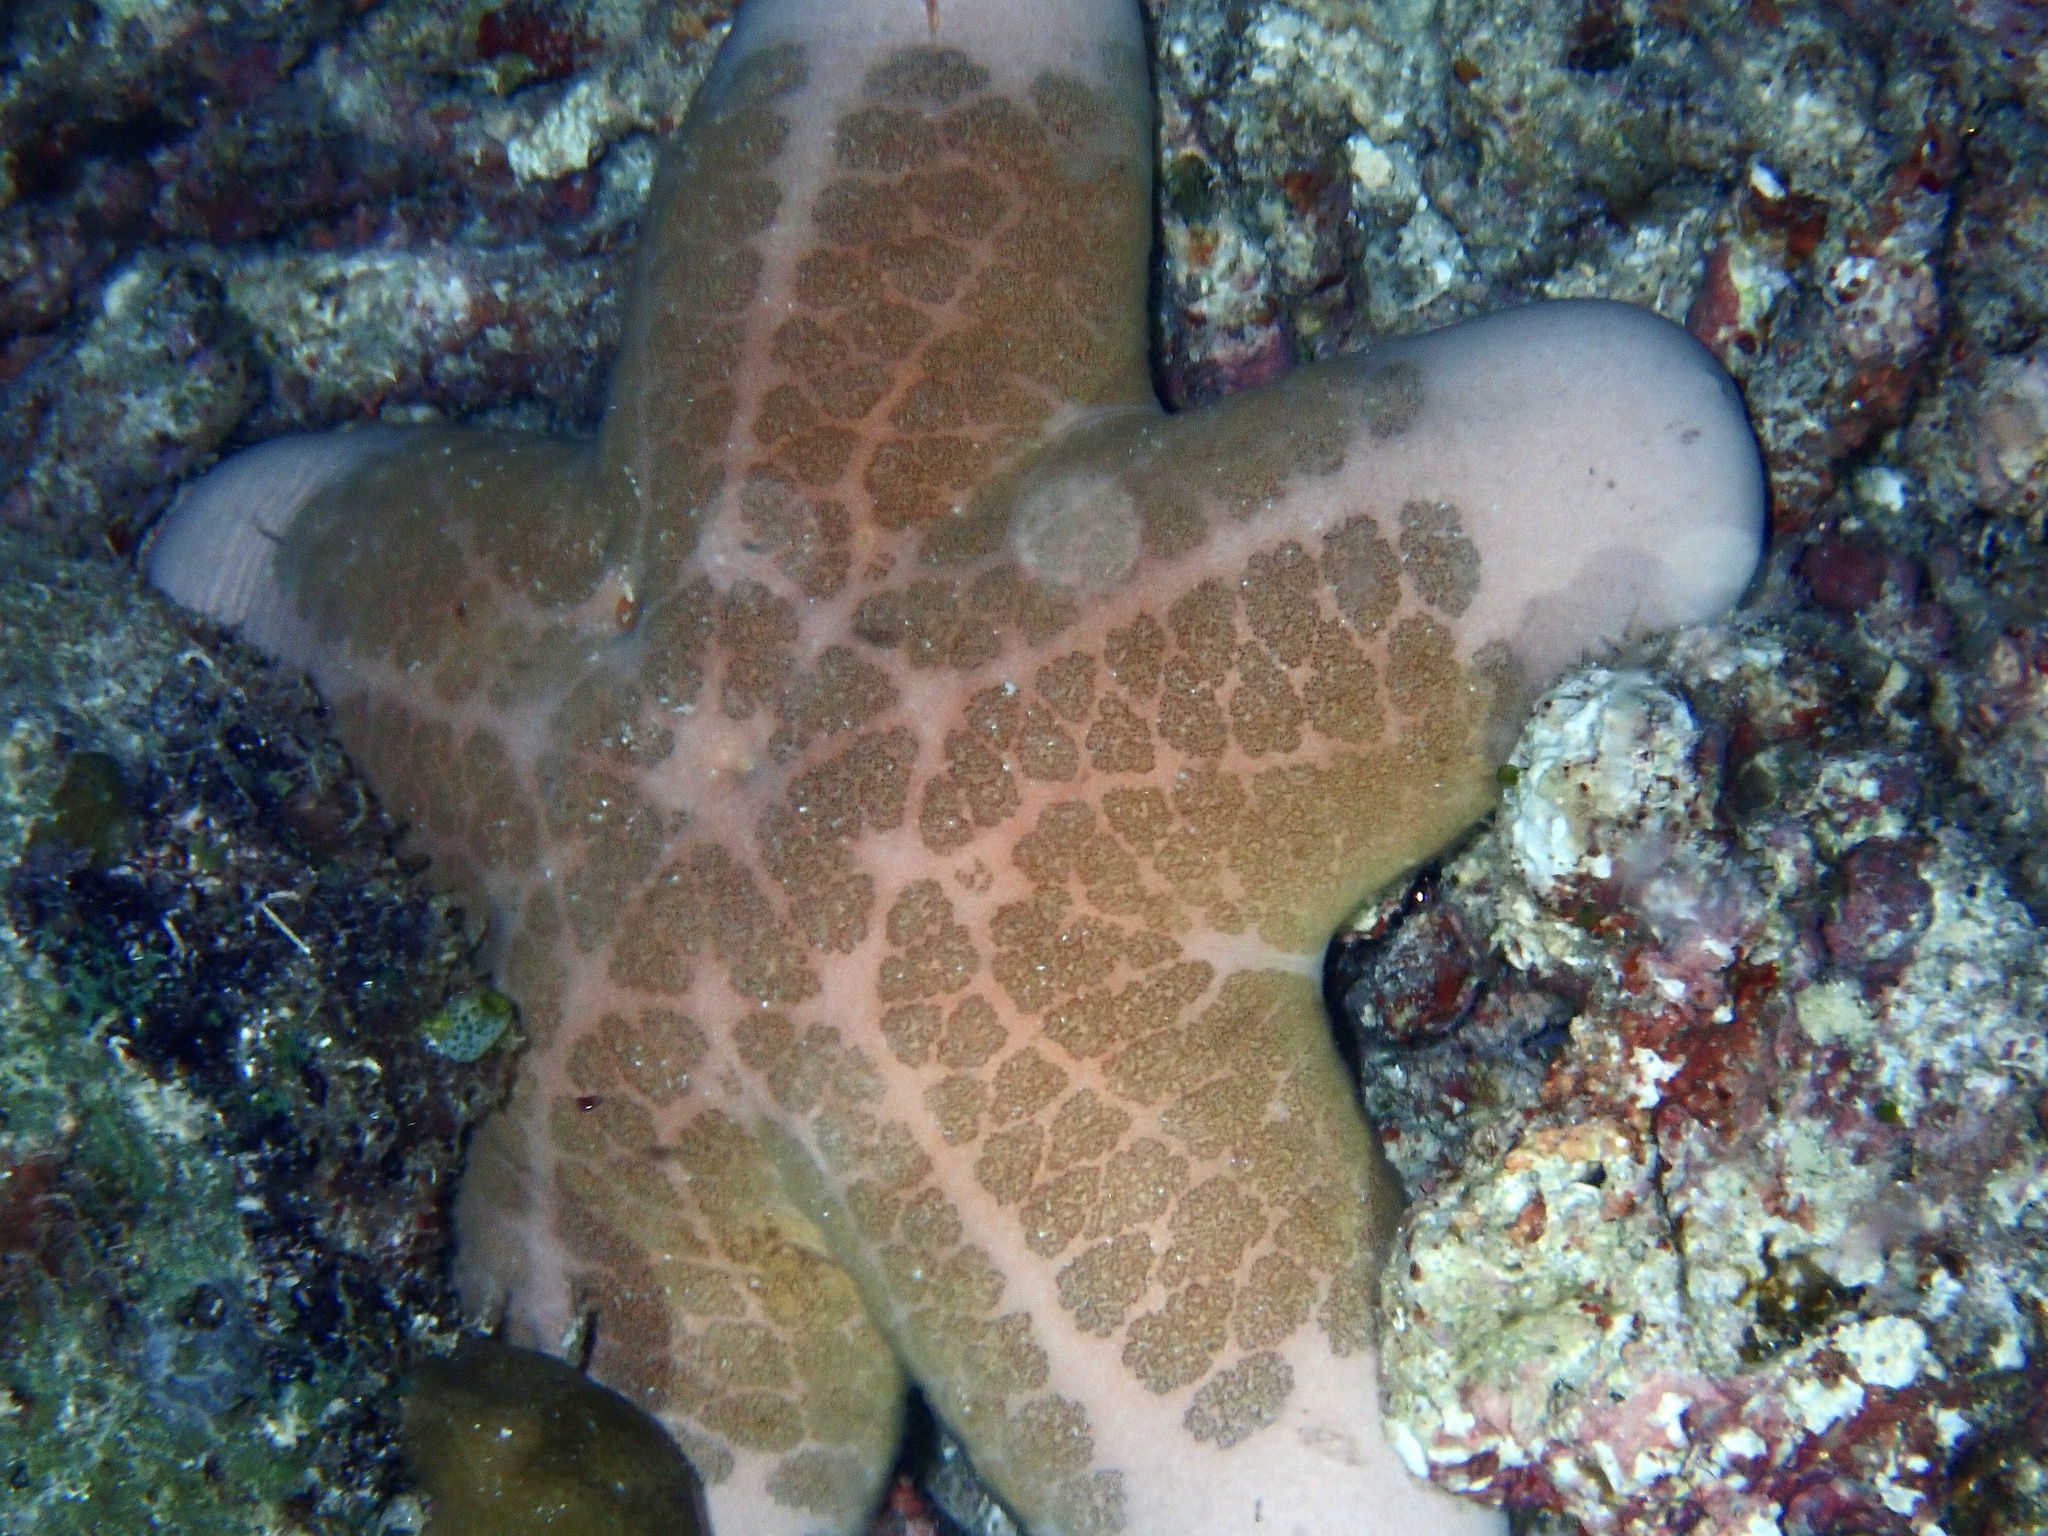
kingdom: Animalia
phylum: Echinodermata
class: Asteroidea
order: Valvatida
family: Oreasteridae
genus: Choriaster
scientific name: Choriaster granulatus
